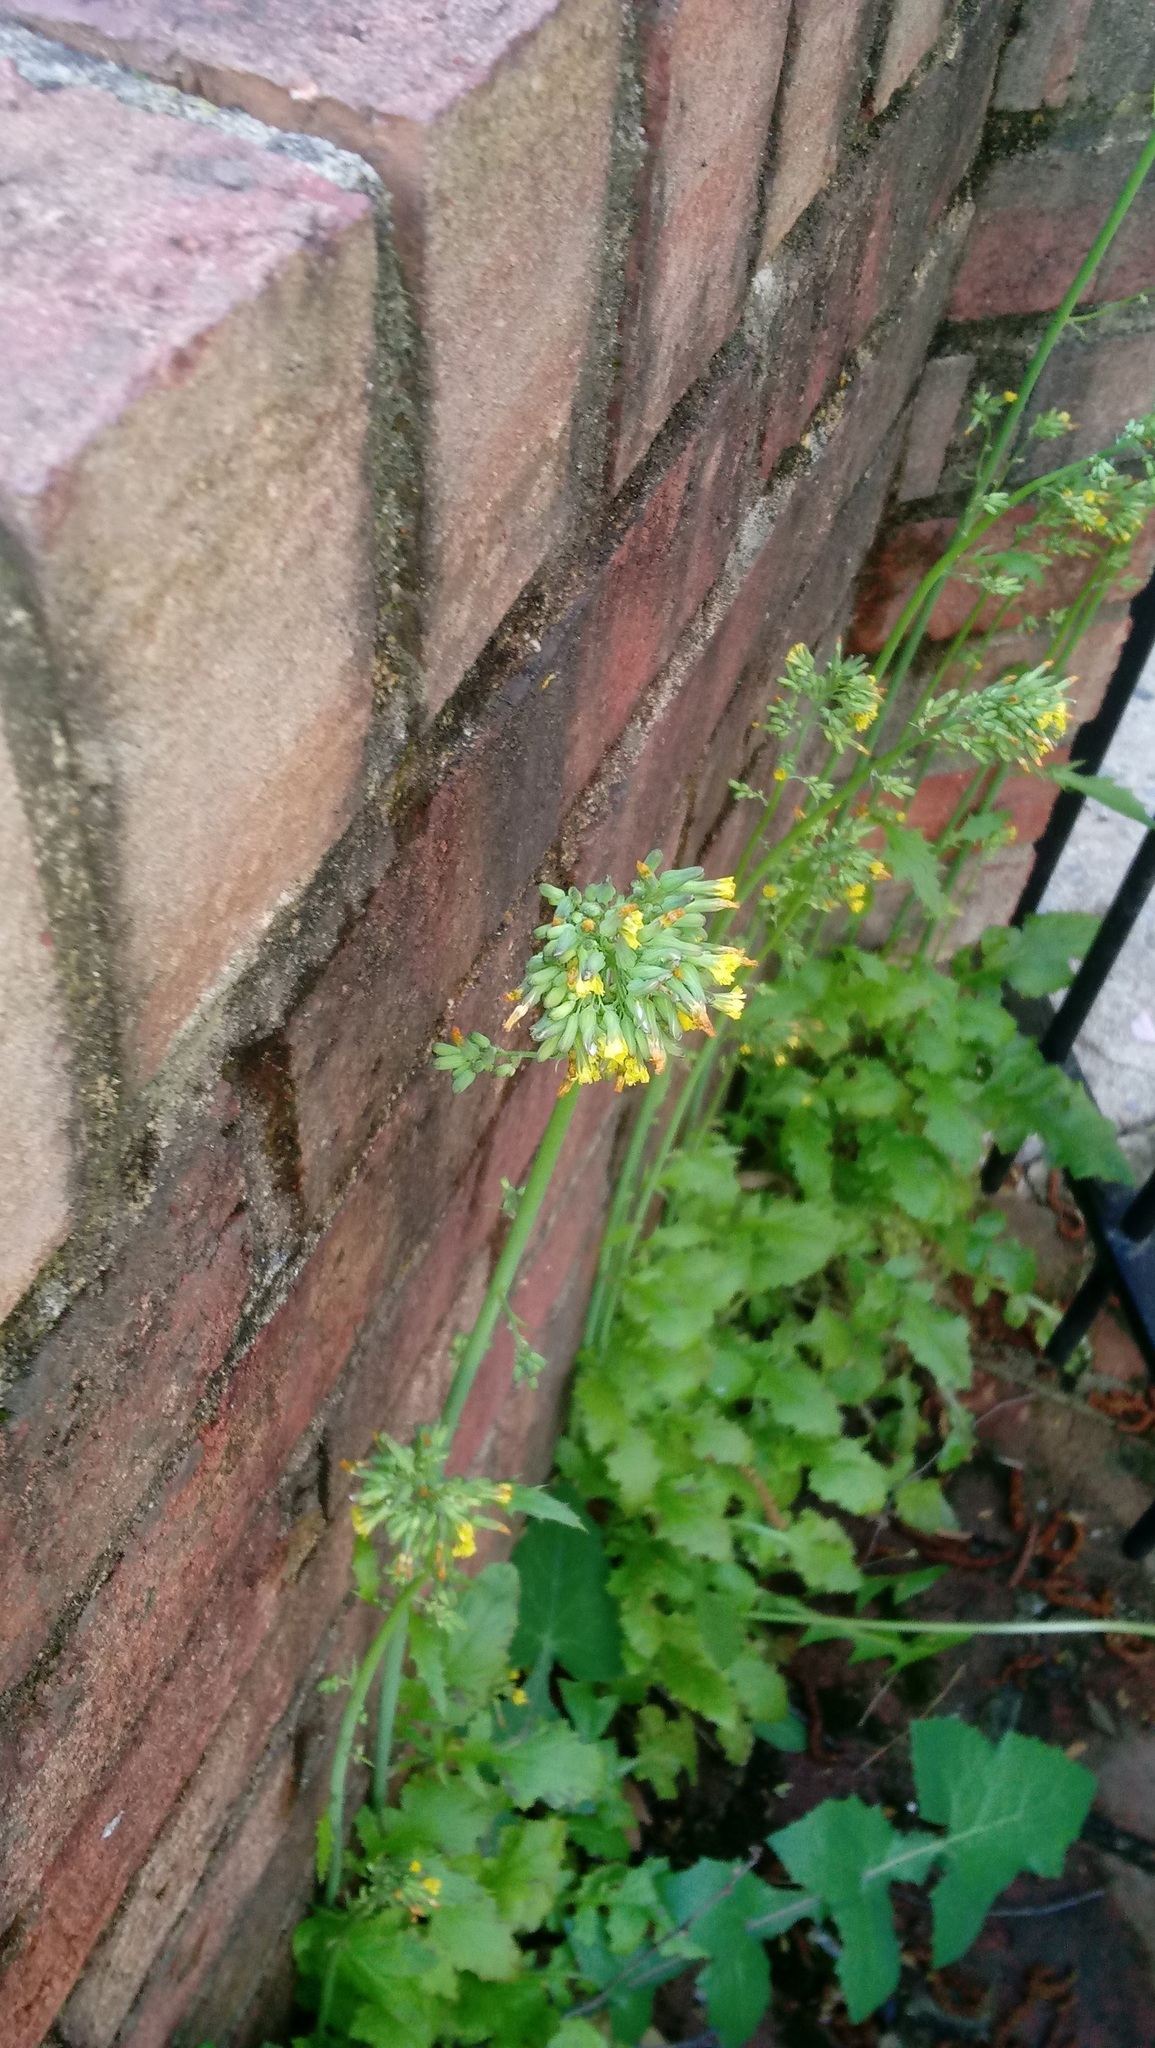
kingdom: Plantae
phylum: Tracheophyta
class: Magnoliopsida
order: Asterales
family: Asteraceae
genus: Youngia
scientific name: Youngia japonica
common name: Oriental false hawksbeard
